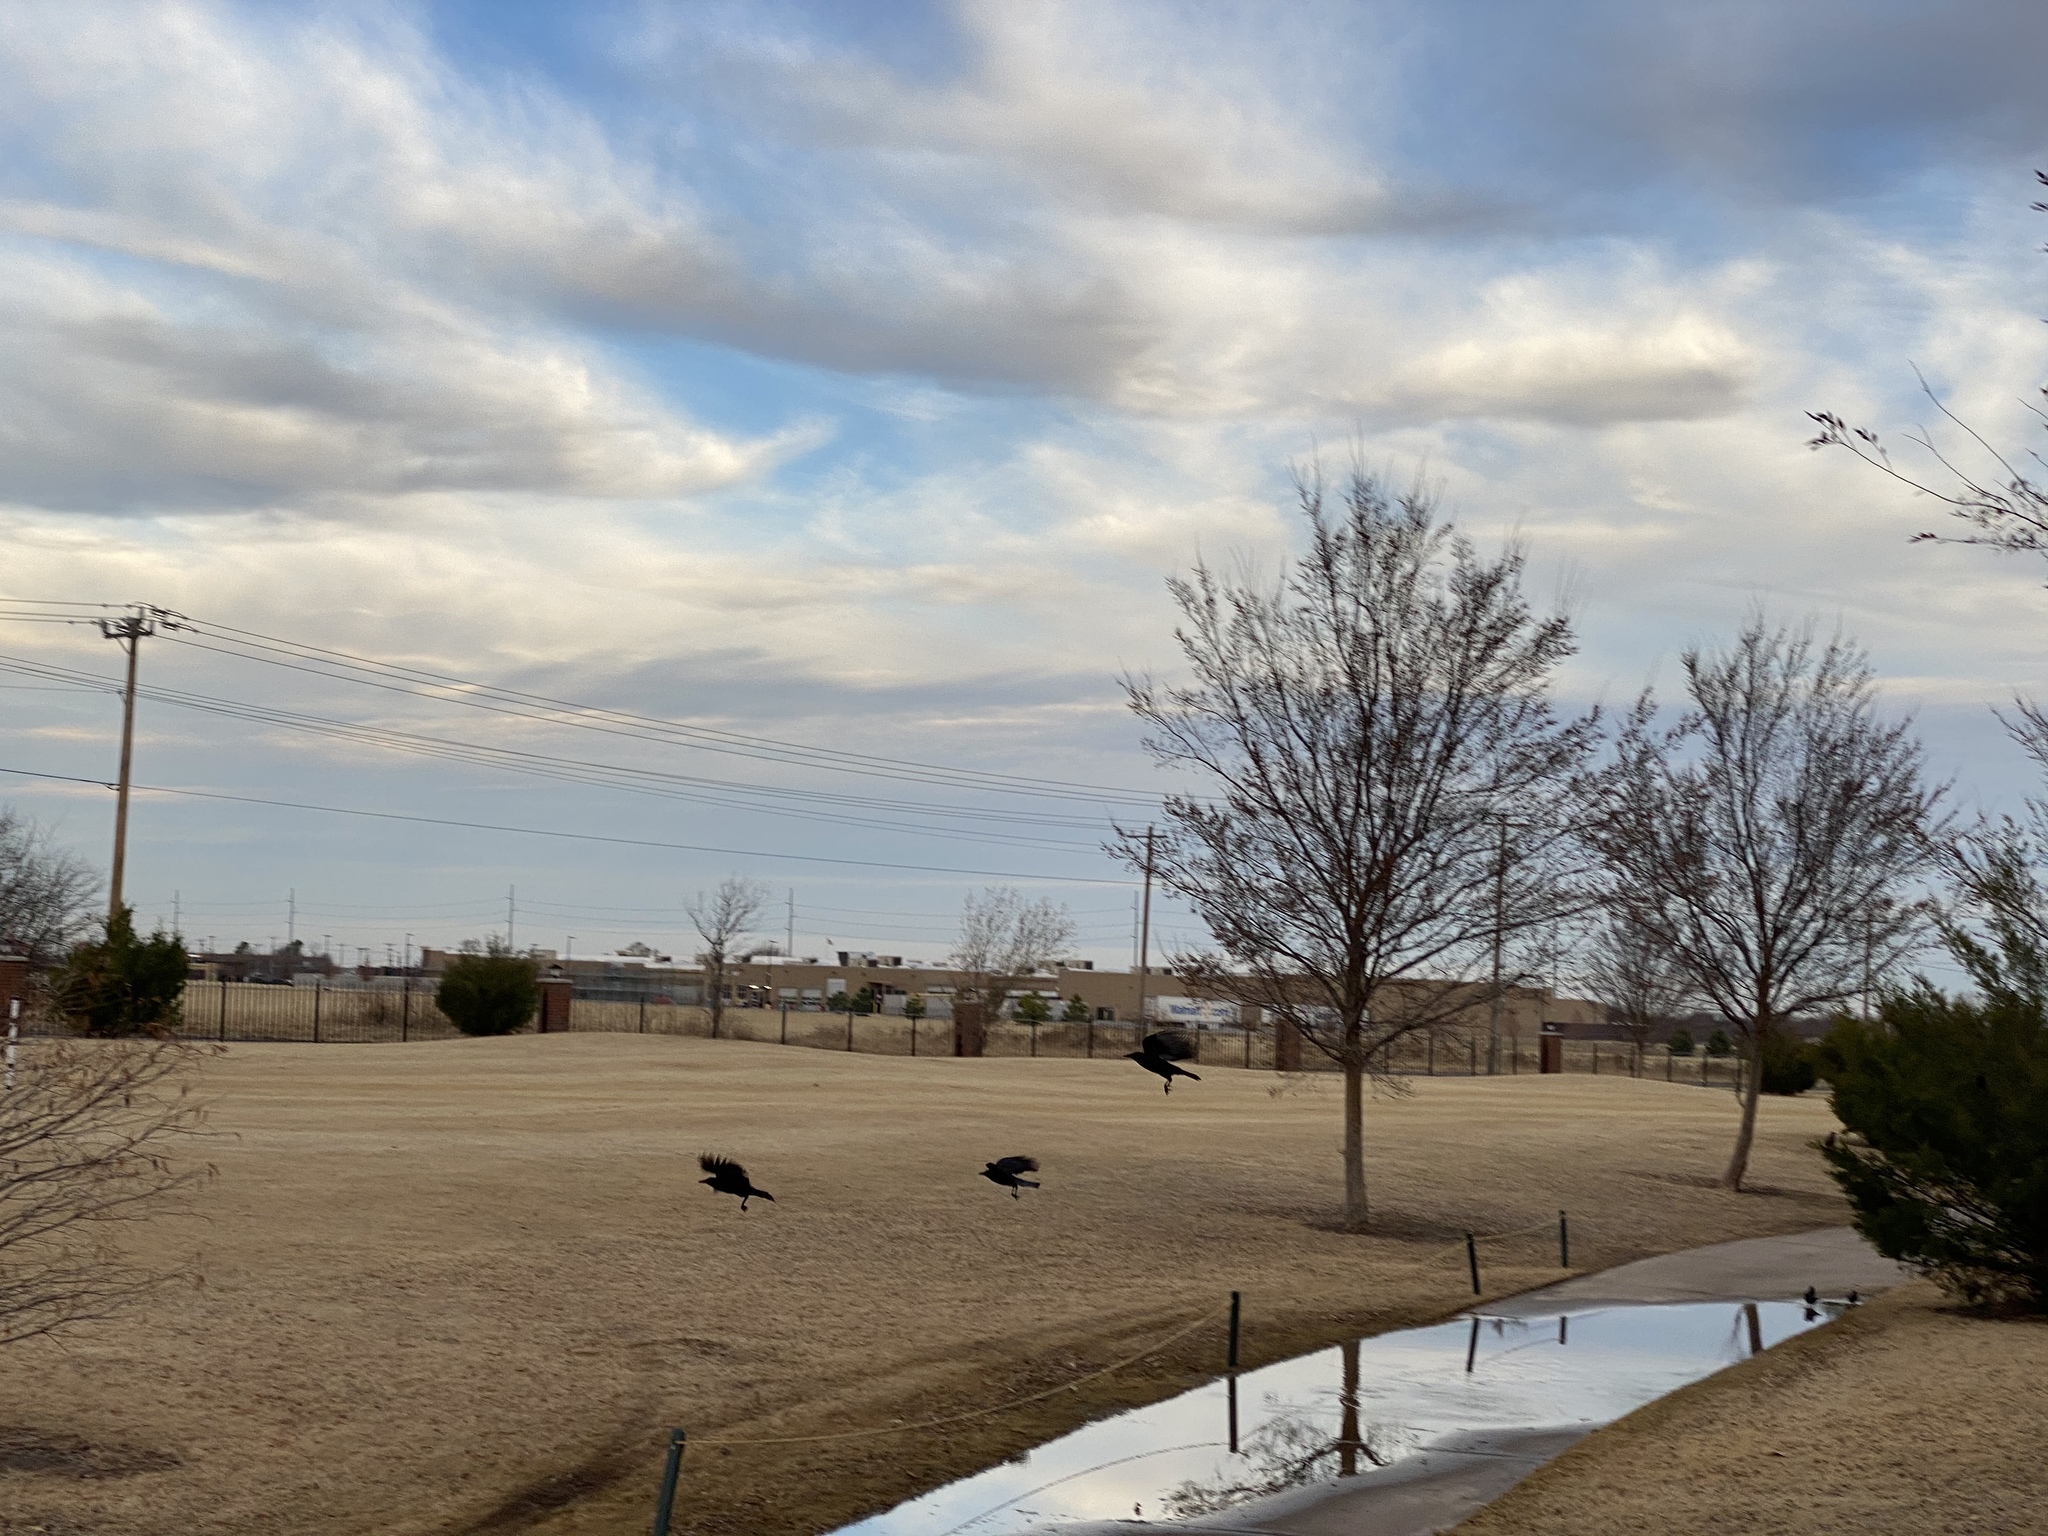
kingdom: Animalia
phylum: Chordata
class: Aves
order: Passeriformes
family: Corvidae
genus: Corvus
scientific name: Corvus brachyrhynchos
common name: American crow
